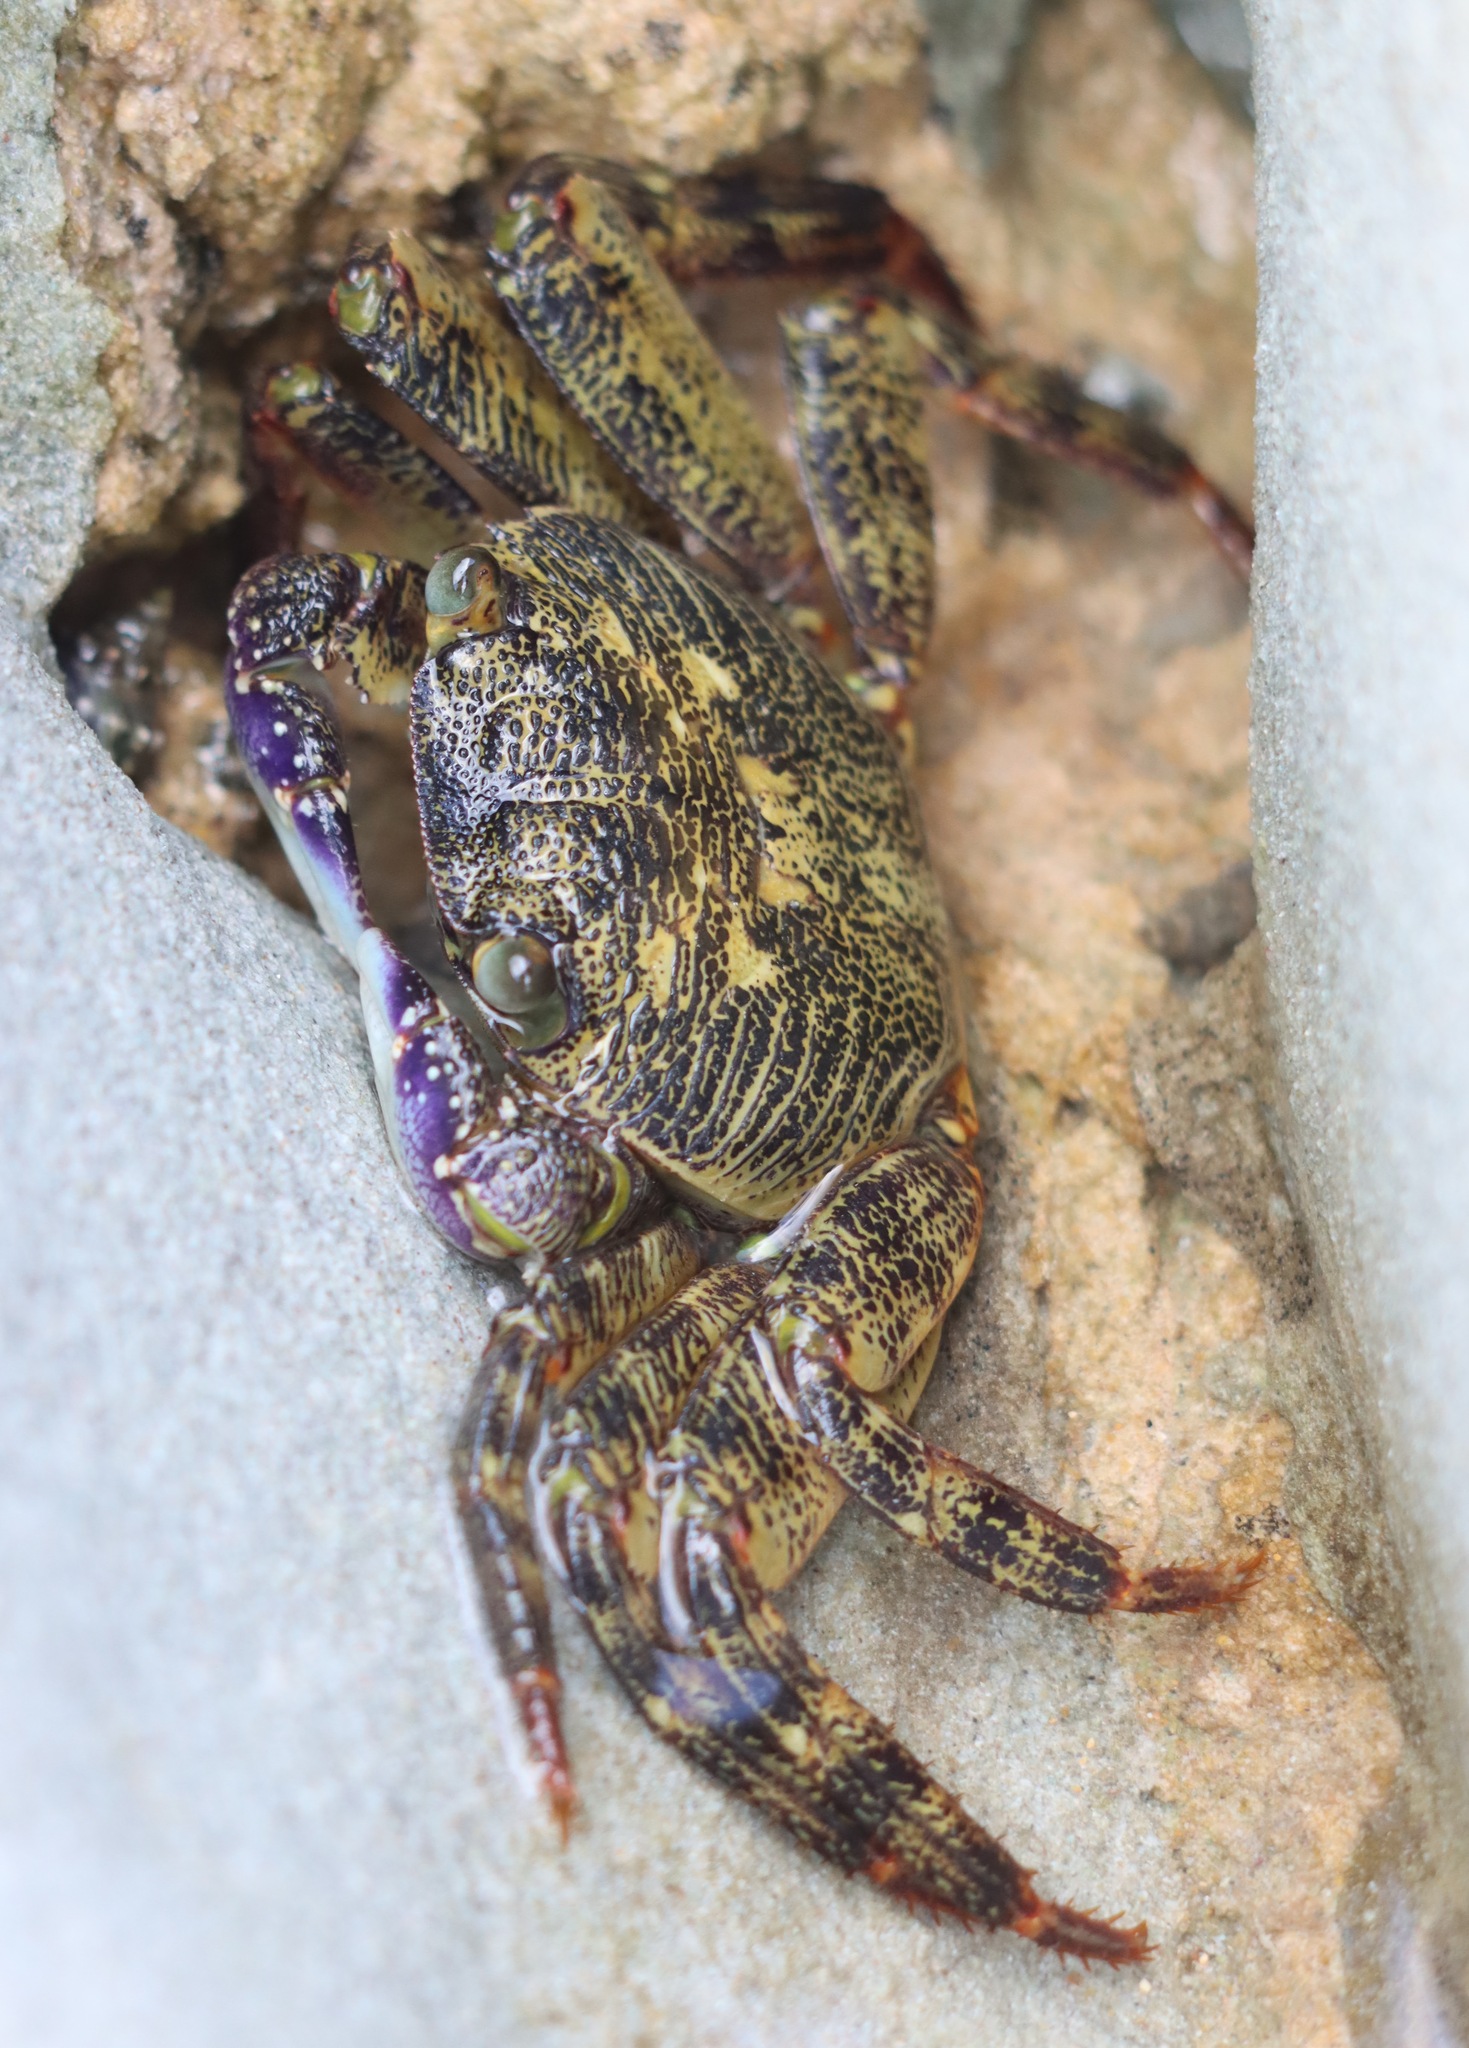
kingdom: Animalia
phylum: Arthropoda
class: Malacostraca
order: Decapoda
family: Grapsidae
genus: Leptograpsus
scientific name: Leptograpsus variegatus
